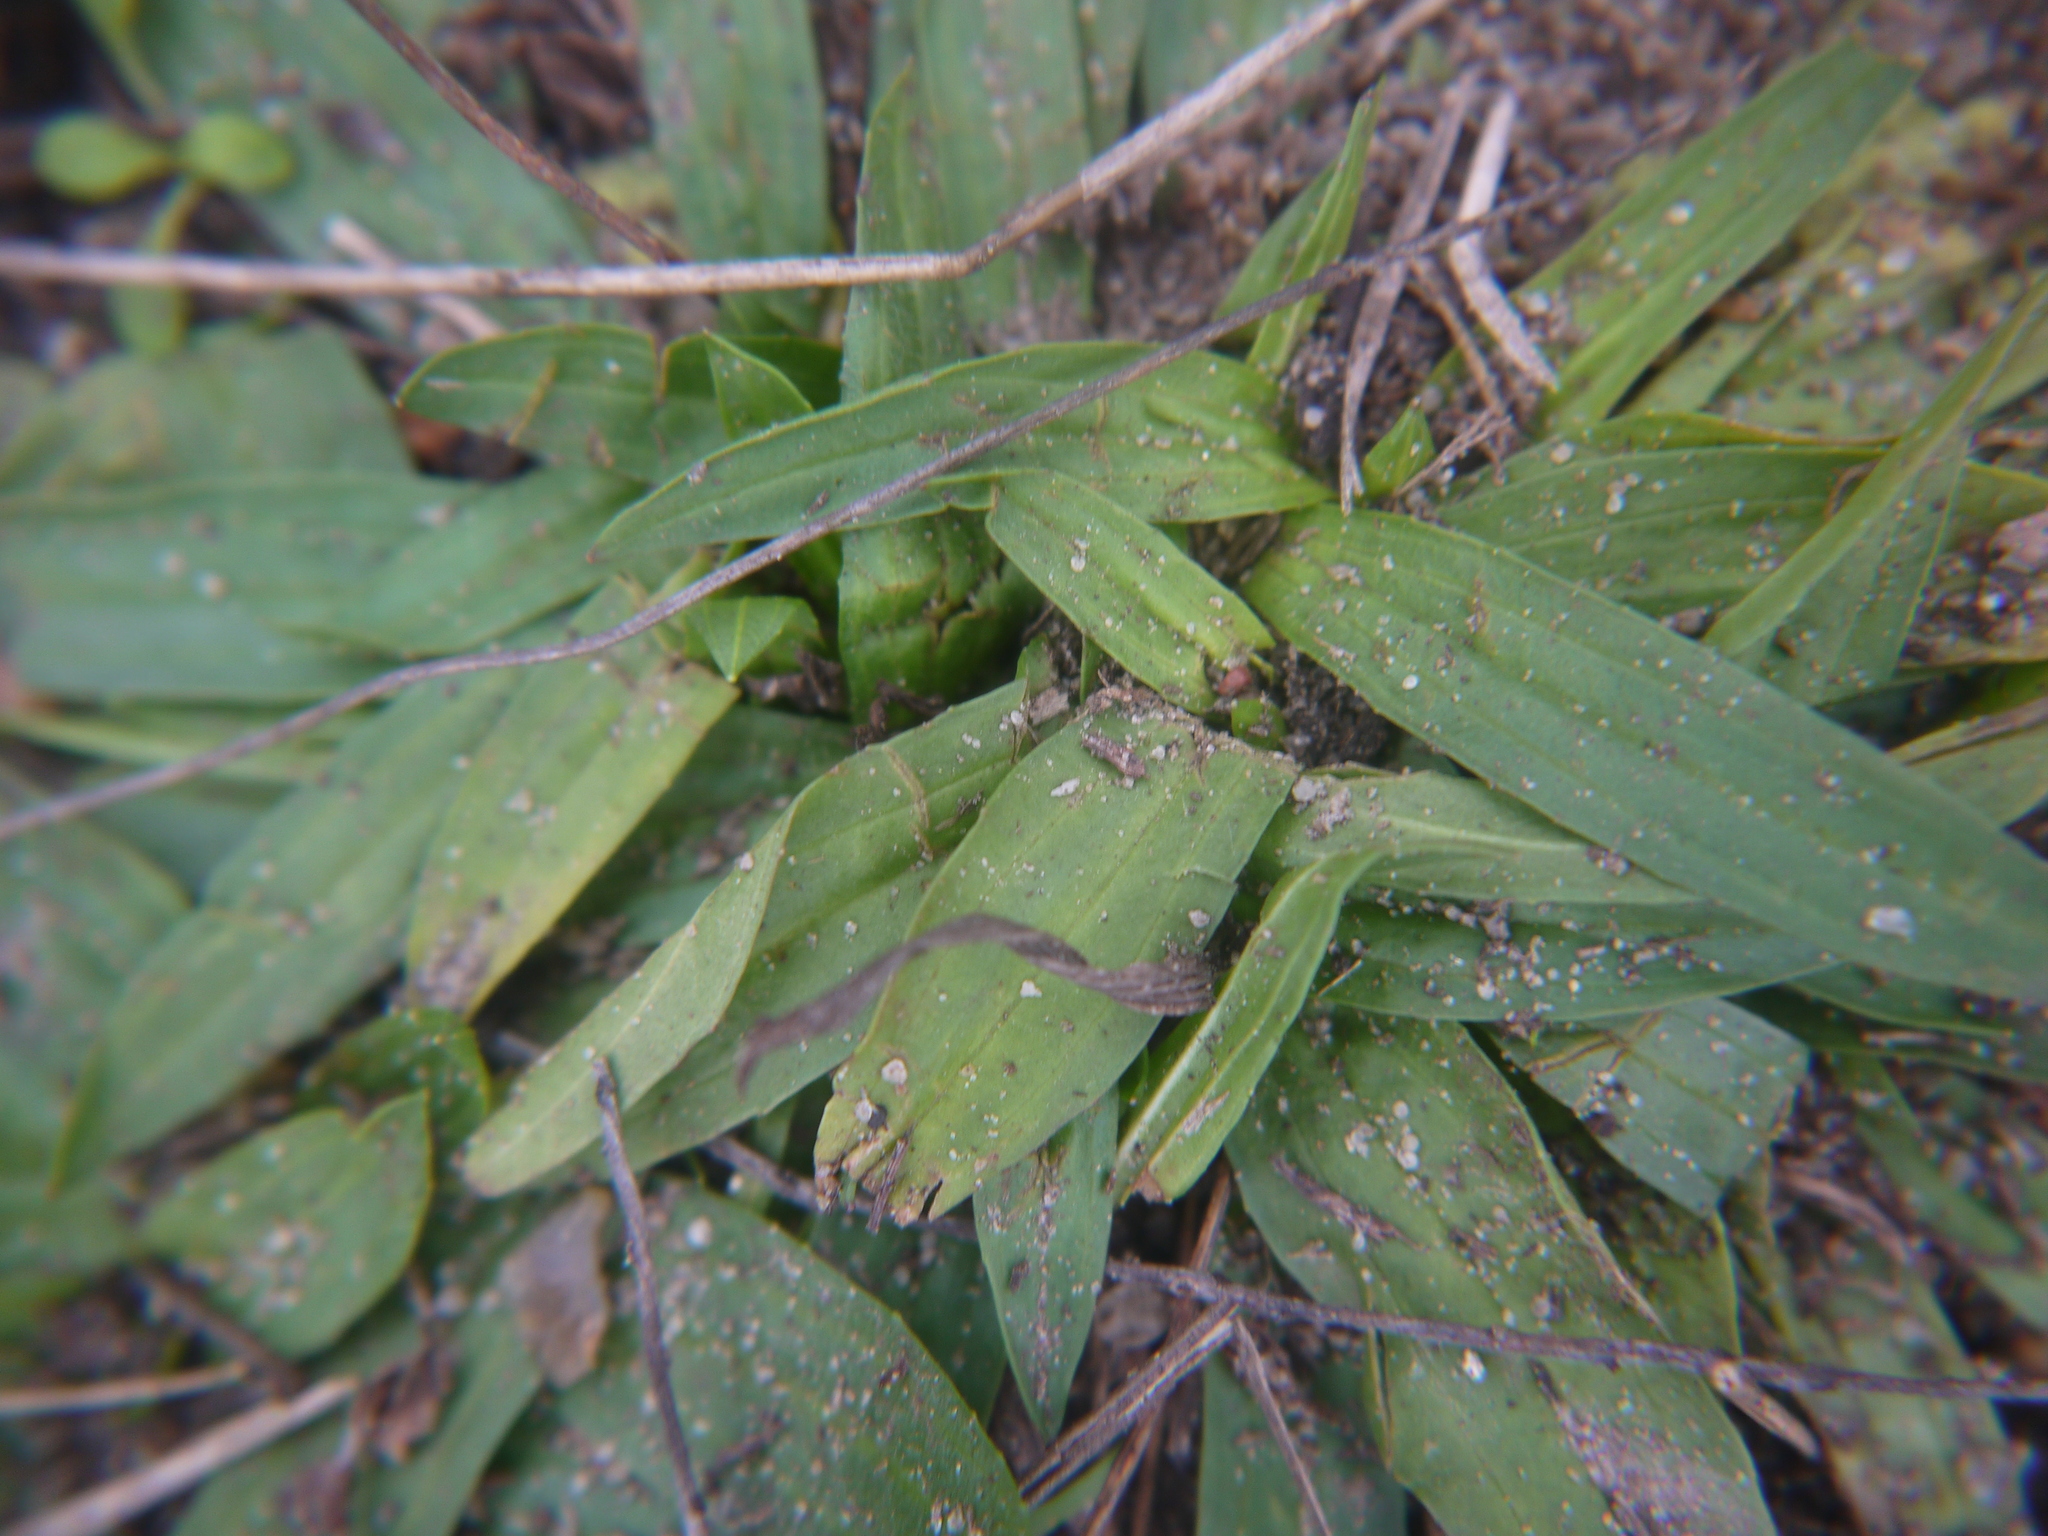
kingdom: Plantae
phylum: Tracheophyta
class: Magnoliopsida
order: Lamiales
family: Plantaginaceae
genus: Plantago
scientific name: Plantago lanceolata
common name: Ribwort plantain
